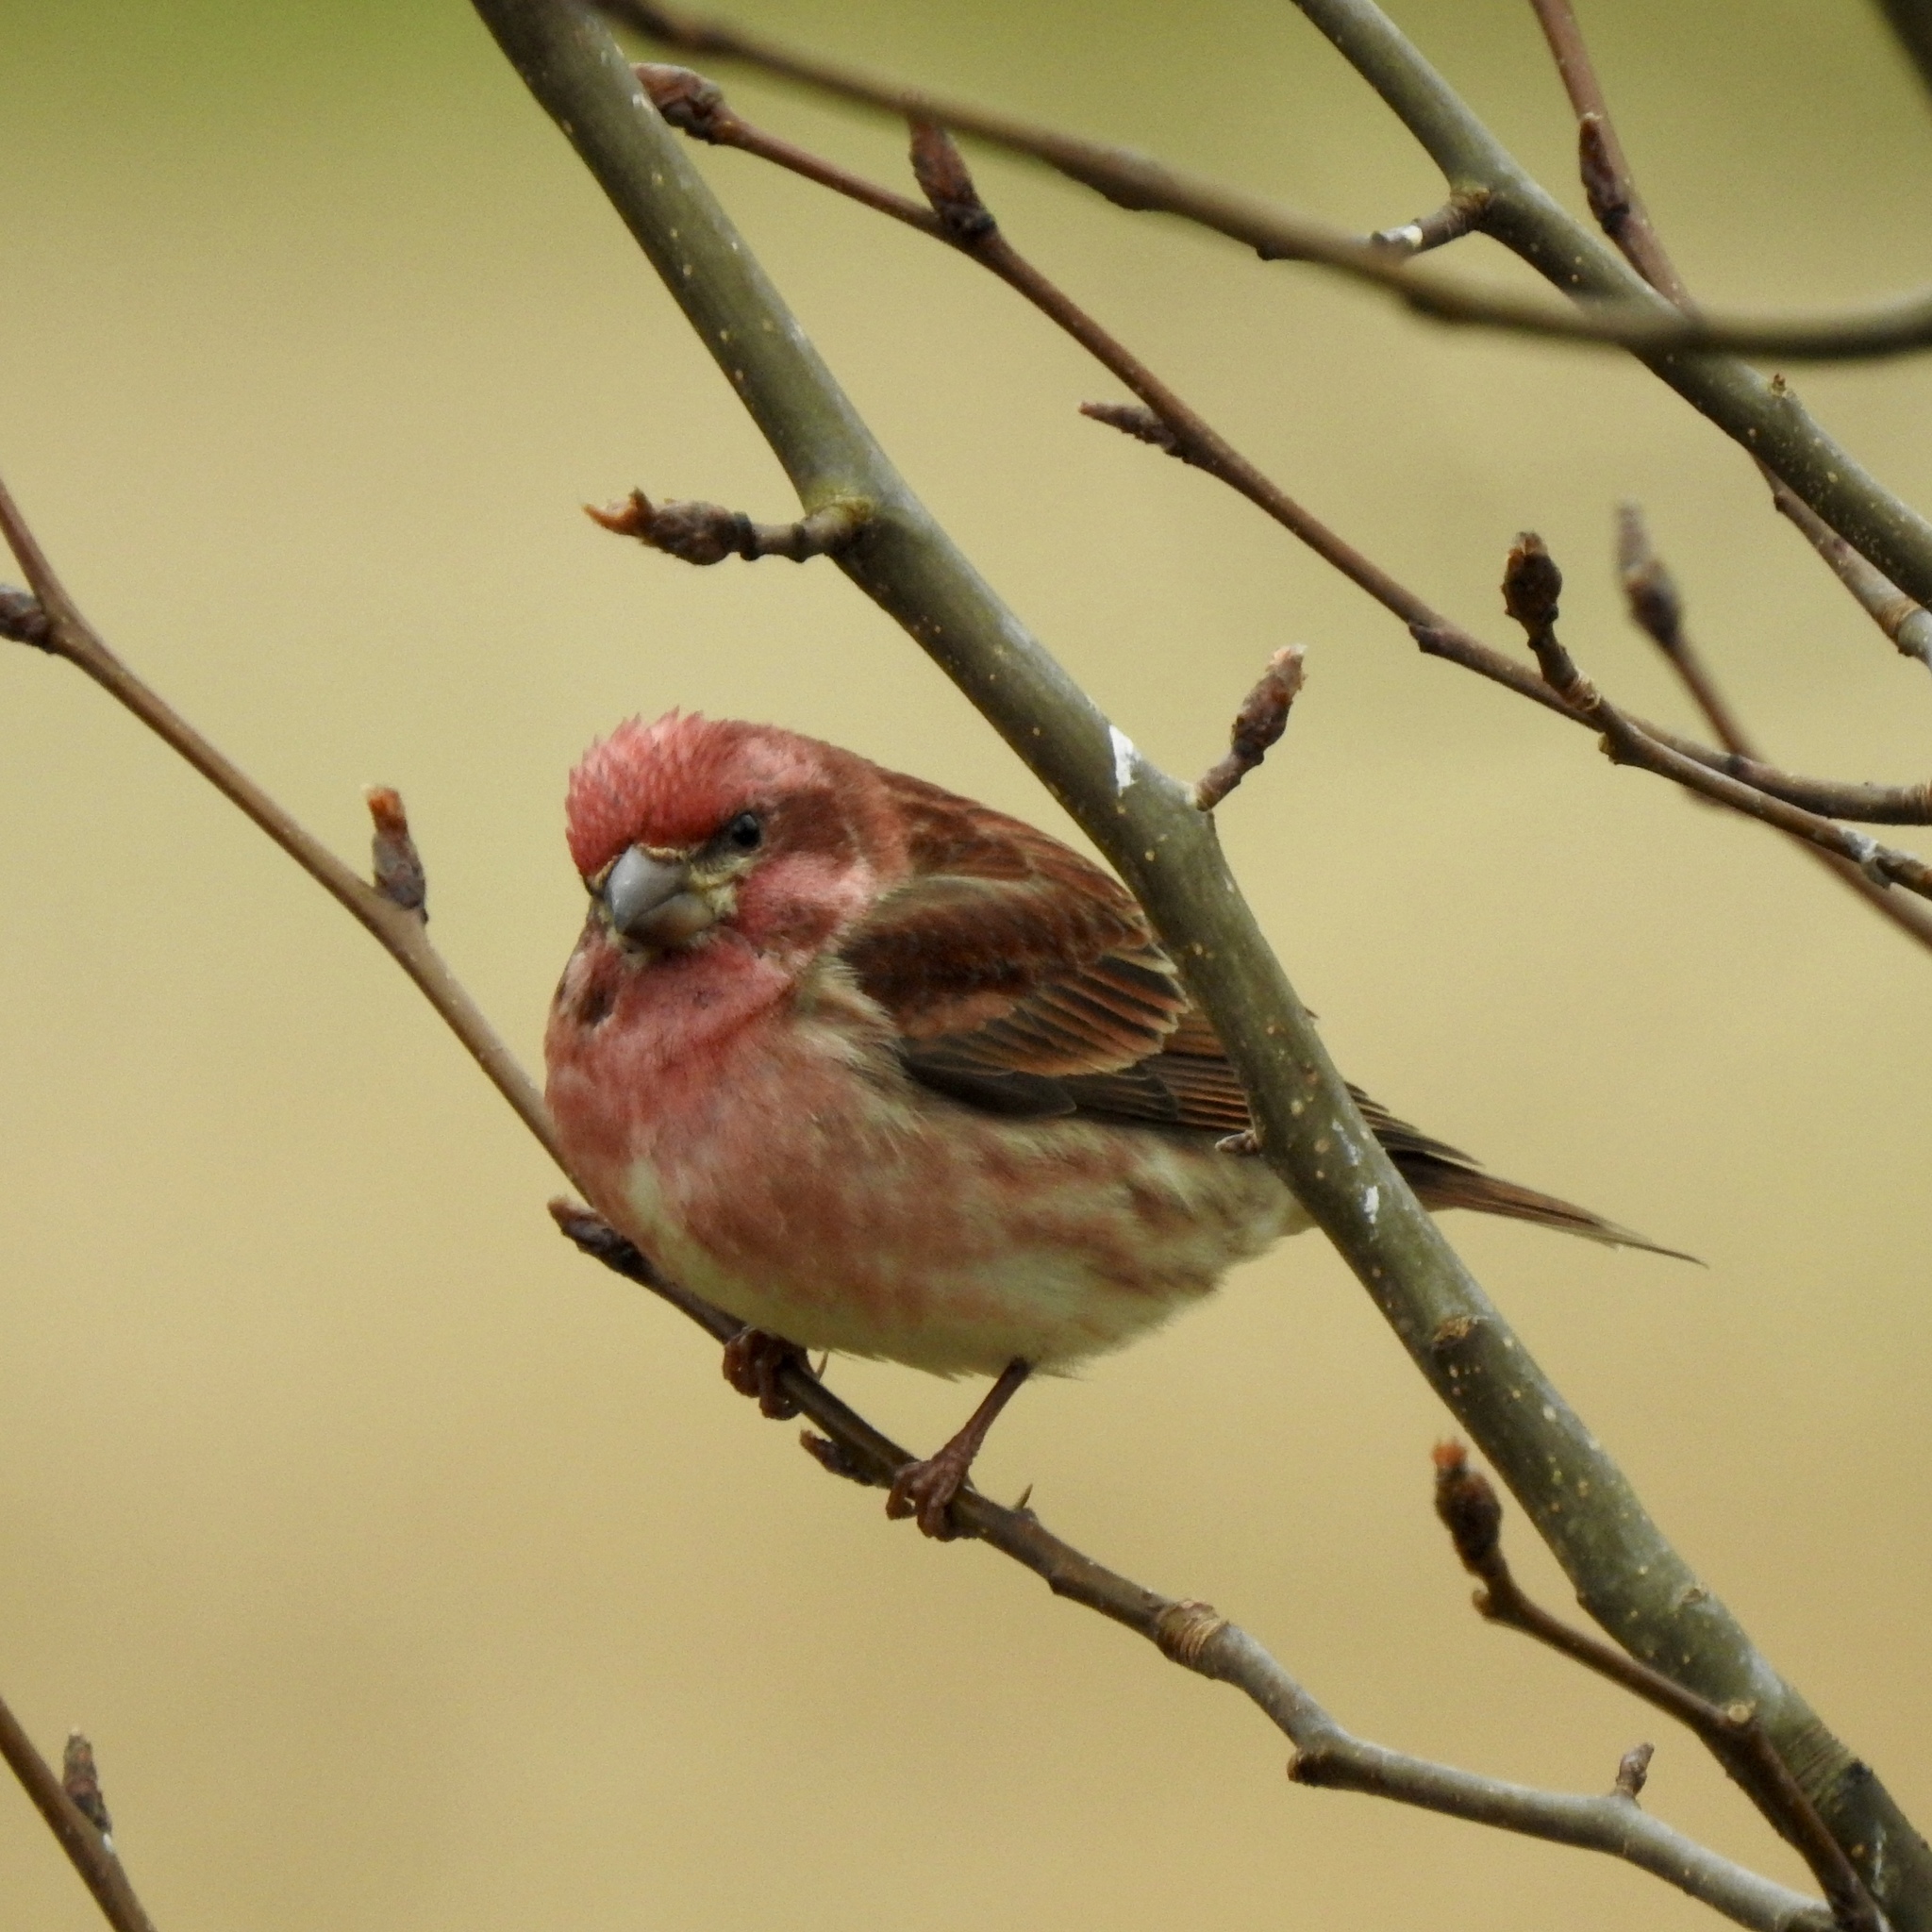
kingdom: Animalia
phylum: Chordata
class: Aves
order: Passeriformes
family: Fringillidae
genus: Haemorhous
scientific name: Haemorhous purpureus
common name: Purple finch
